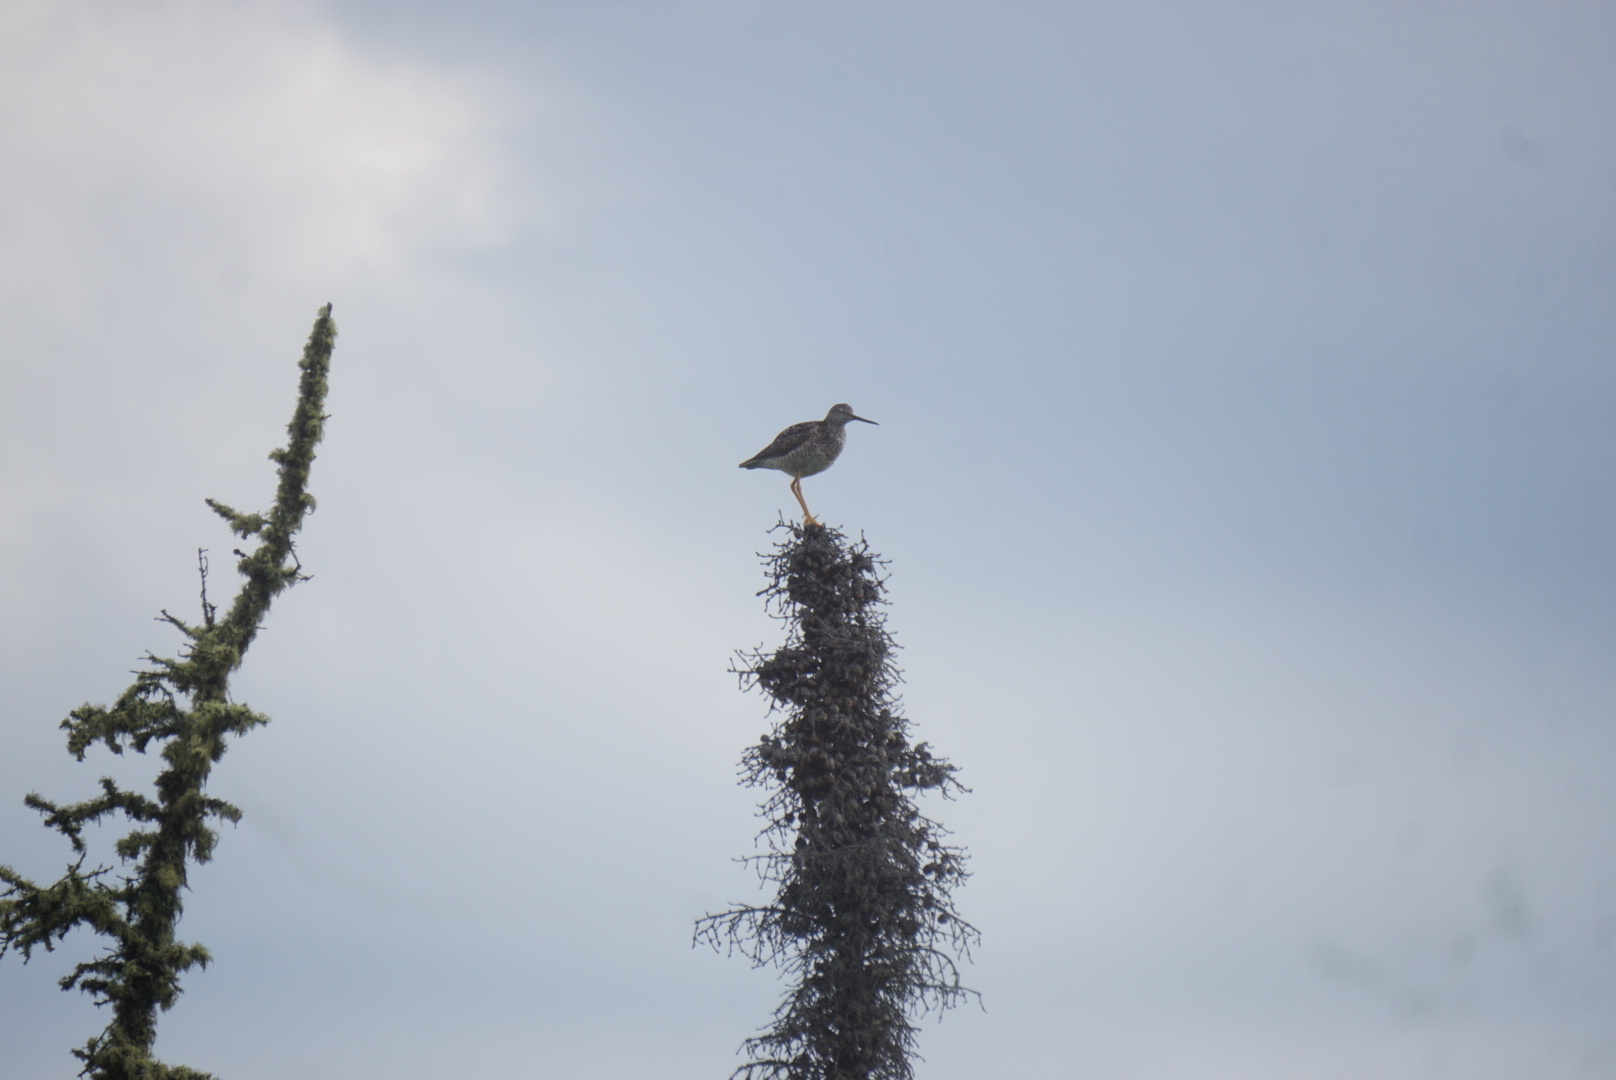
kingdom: Animalia
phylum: Chordata
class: Aves
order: Charadriiformes
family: Scolopacidae
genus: Tringa
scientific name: Tringa melanoleuca
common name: Greater yellowlegs
